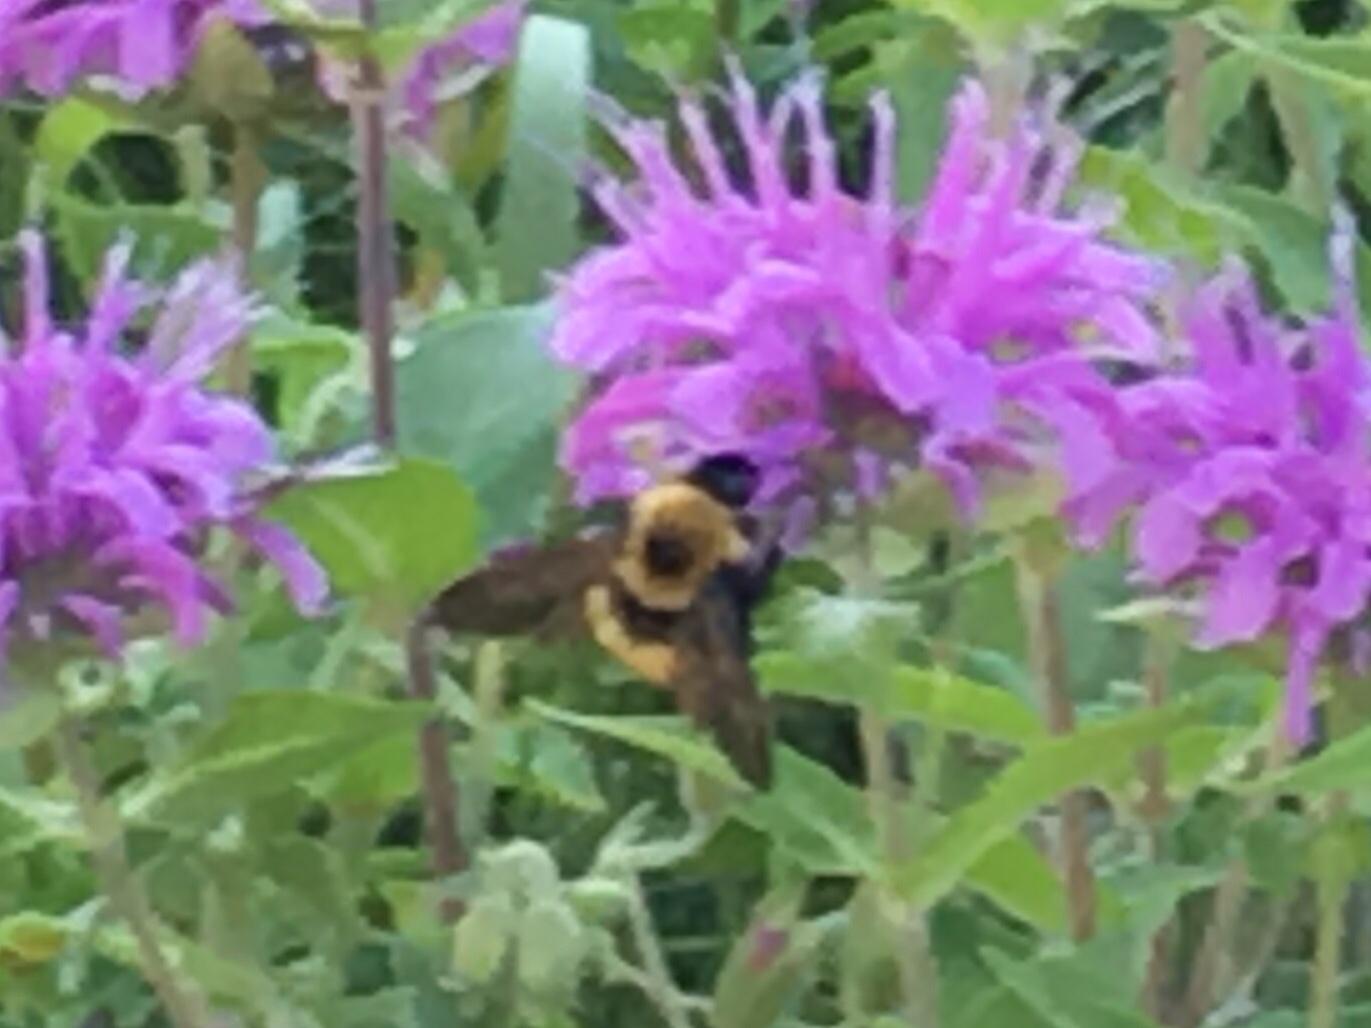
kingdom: Animalia
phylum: Arthropoda
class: Insecta
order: Hymenoptera
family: Apidae
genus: Bombus
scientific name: Bombus nevadensis
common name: Nevada bumble bee
